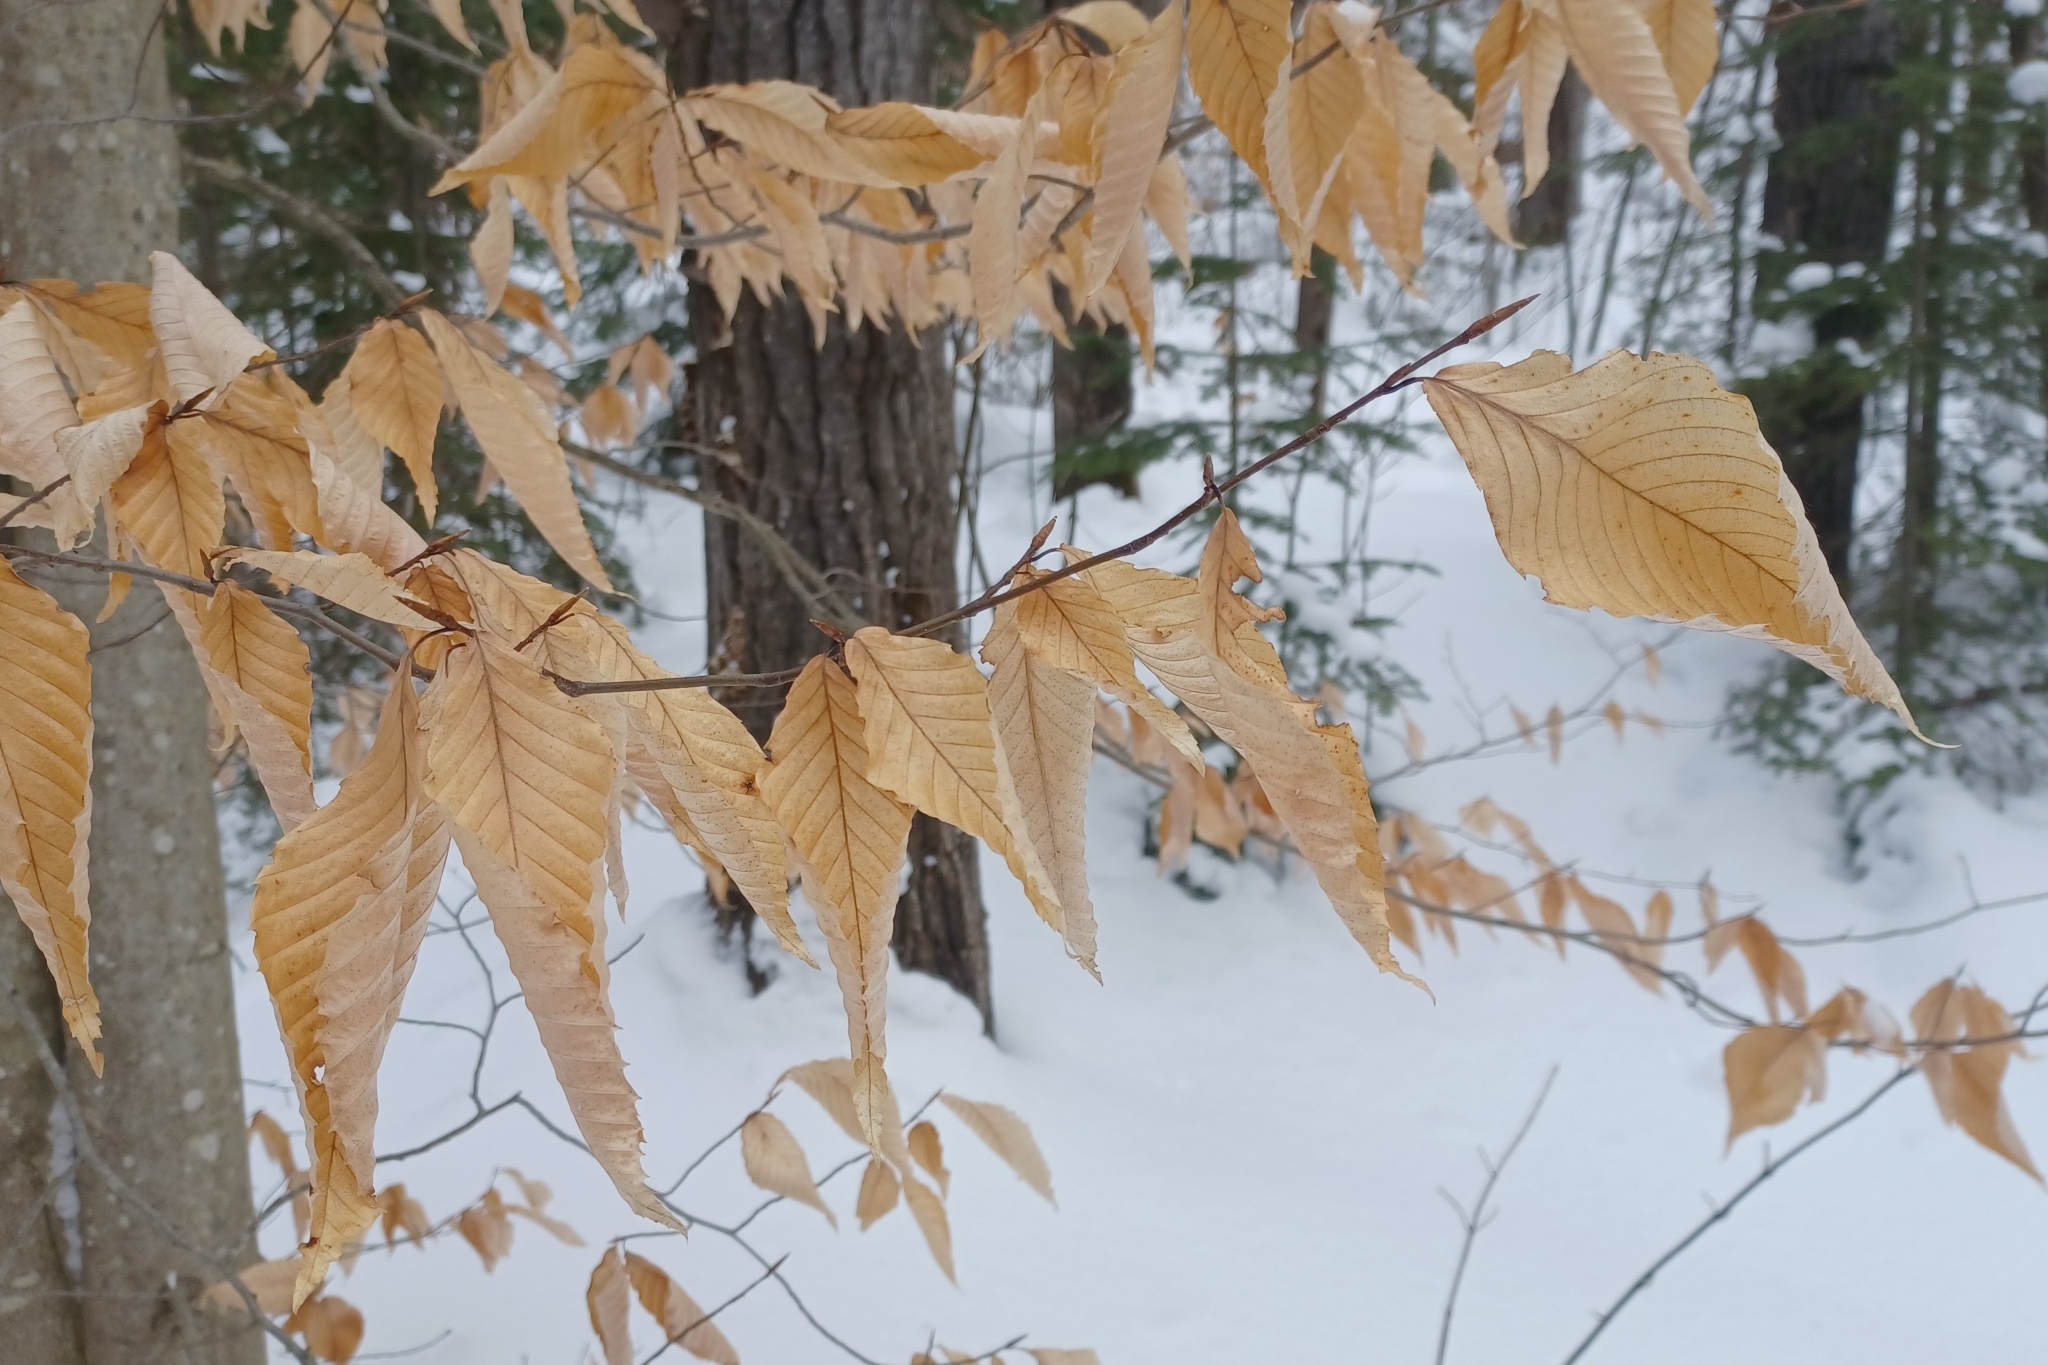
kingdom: Plantae
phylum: Tracheophyta
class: Magnoliopsida
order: Fagales
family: Fagaceae
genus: Fagus
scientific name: Fagus grandifolia
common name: American beech
